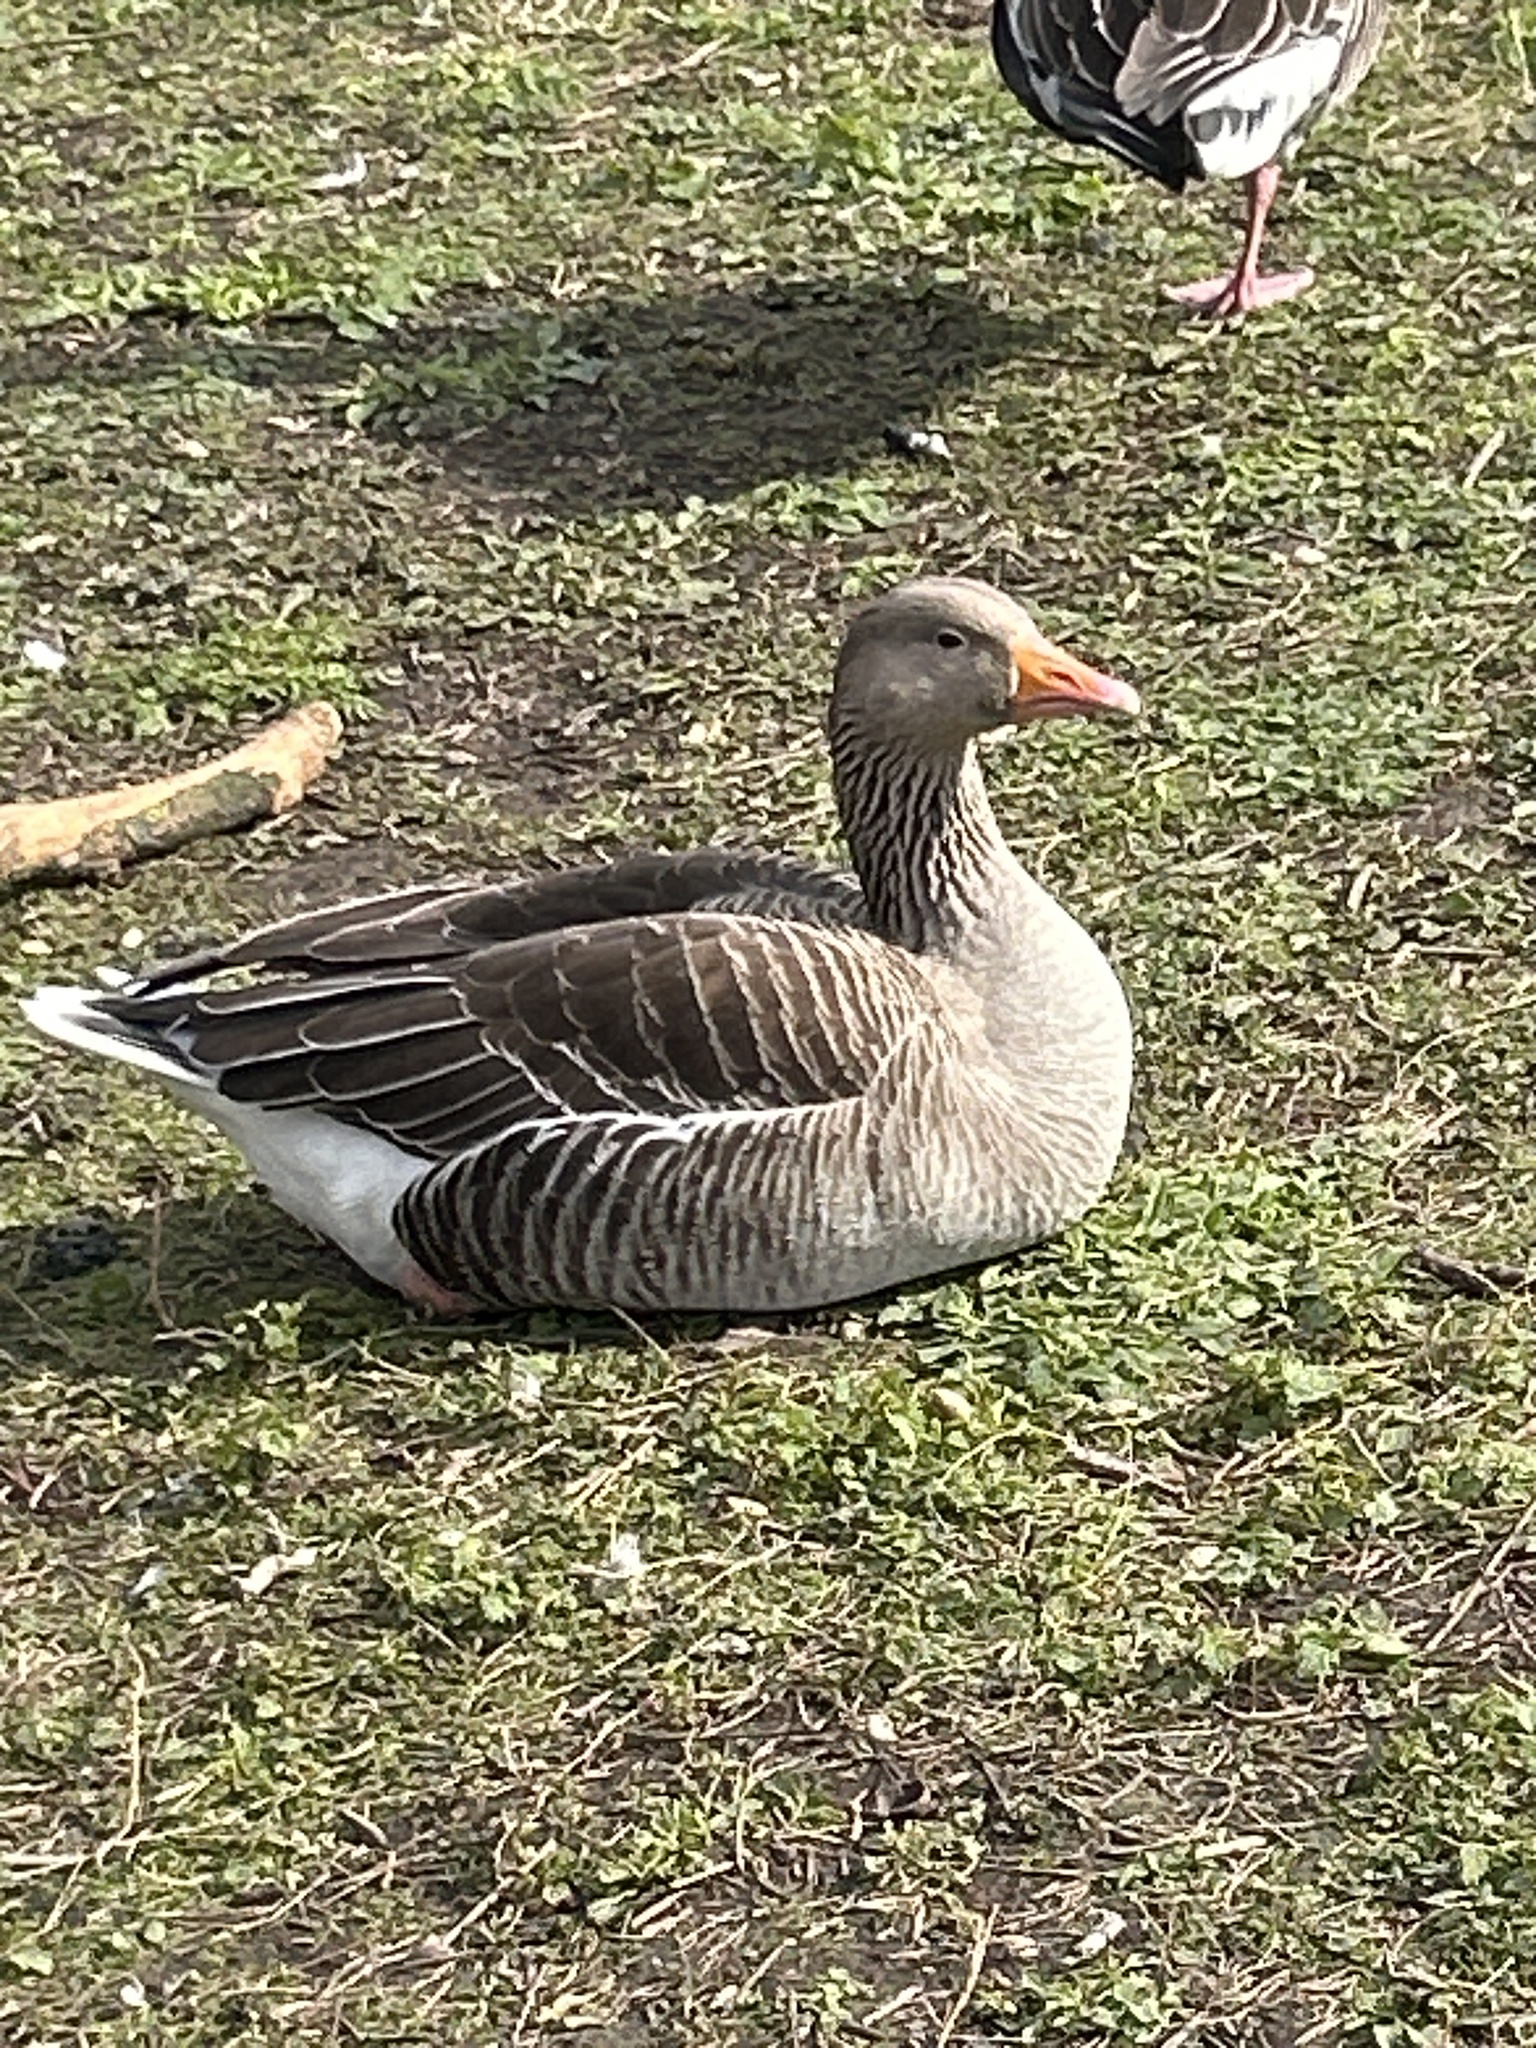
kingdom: Animalia
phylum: Chordata
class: Aves
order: Anseriformes
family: Anatidae
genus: Anser
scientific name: Anser anser
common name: Greylag goose
